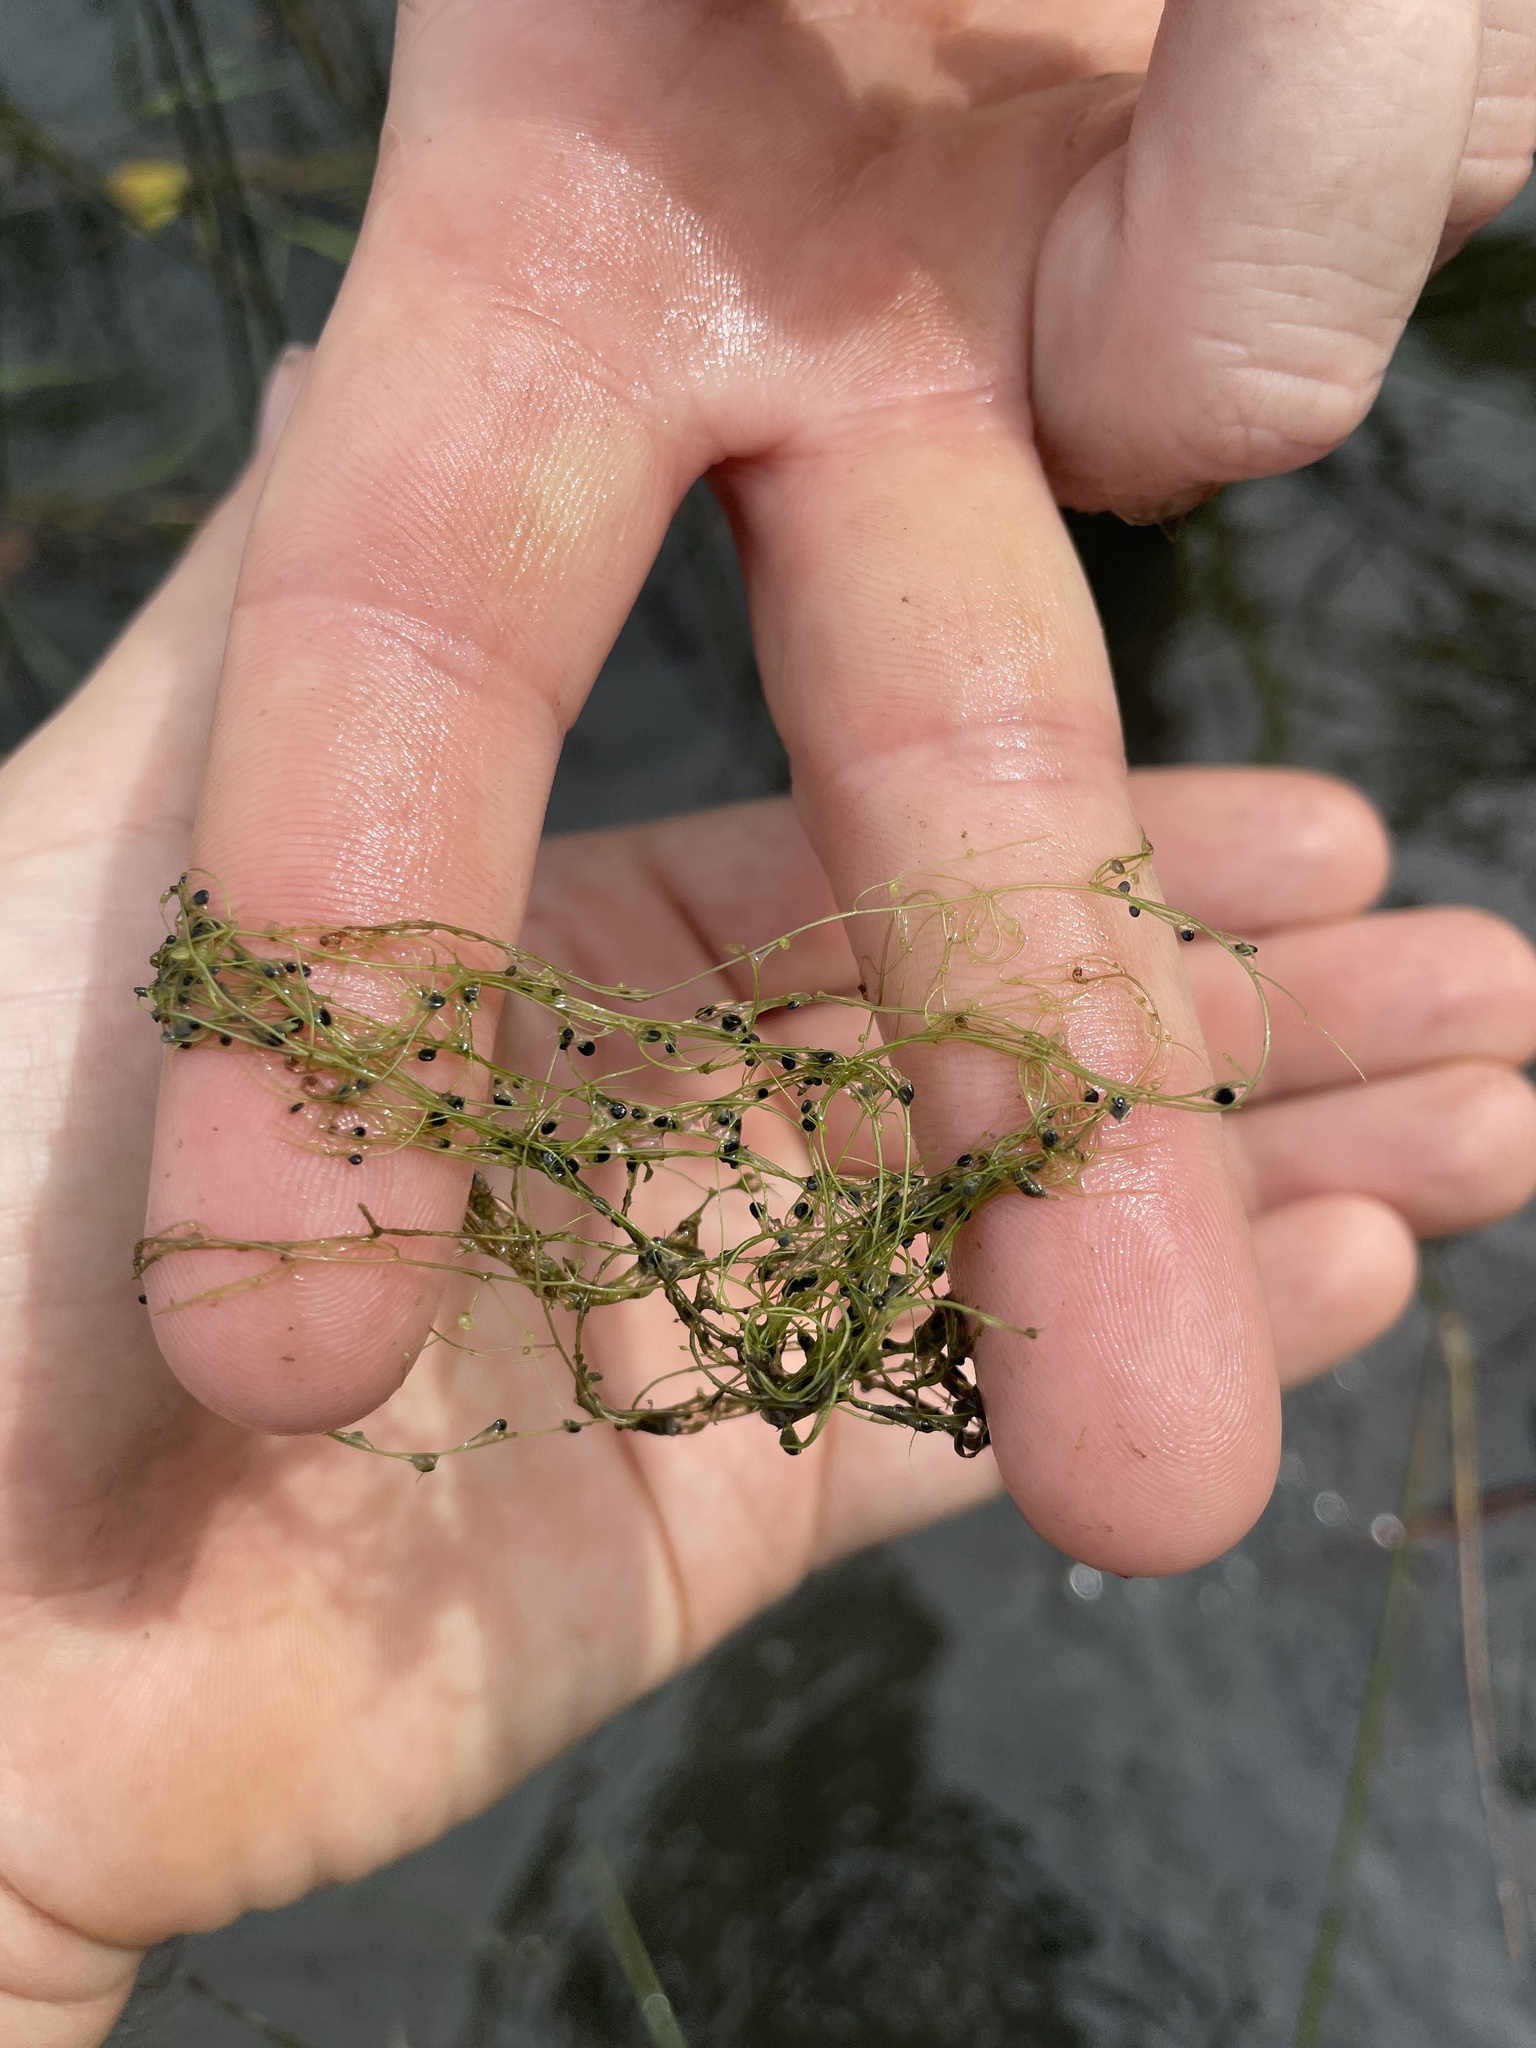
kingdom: Plantae
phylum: Tracheophyta
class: Magnoliopsida
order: Lamiales
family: Lentibulariaceae
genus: Utricularia
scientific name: Utricularia gibba
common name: Humped bladderwort
